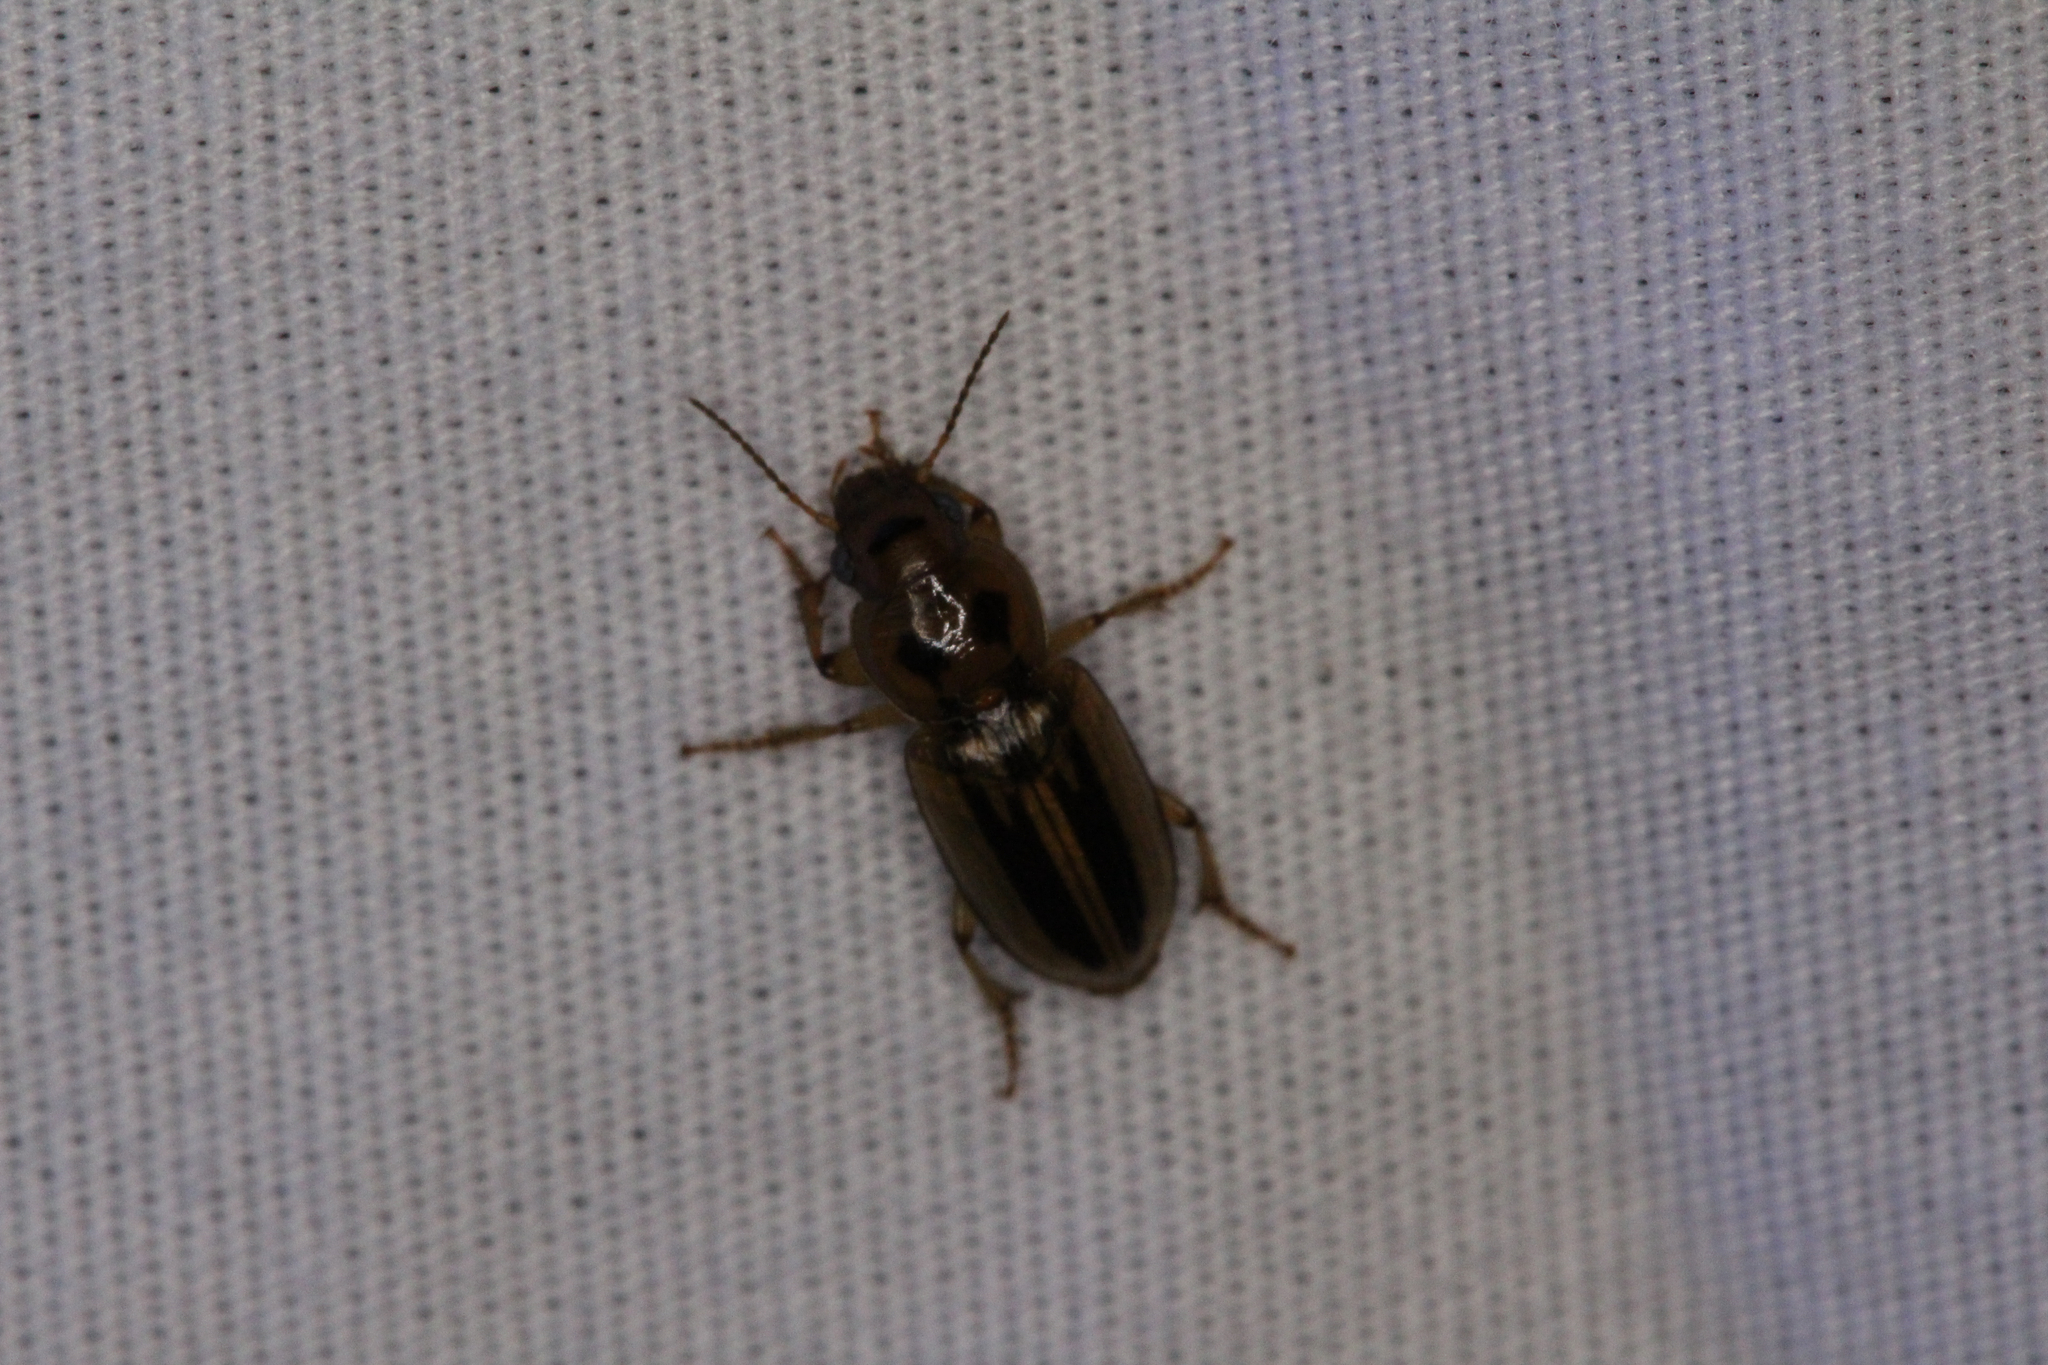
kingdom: Animalia
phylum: Arthropoda
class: Insecta
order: Coleoptera
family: Carabidae
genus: Stenolophus
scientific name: Stenolophus lineola
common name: Lined stenolophus
